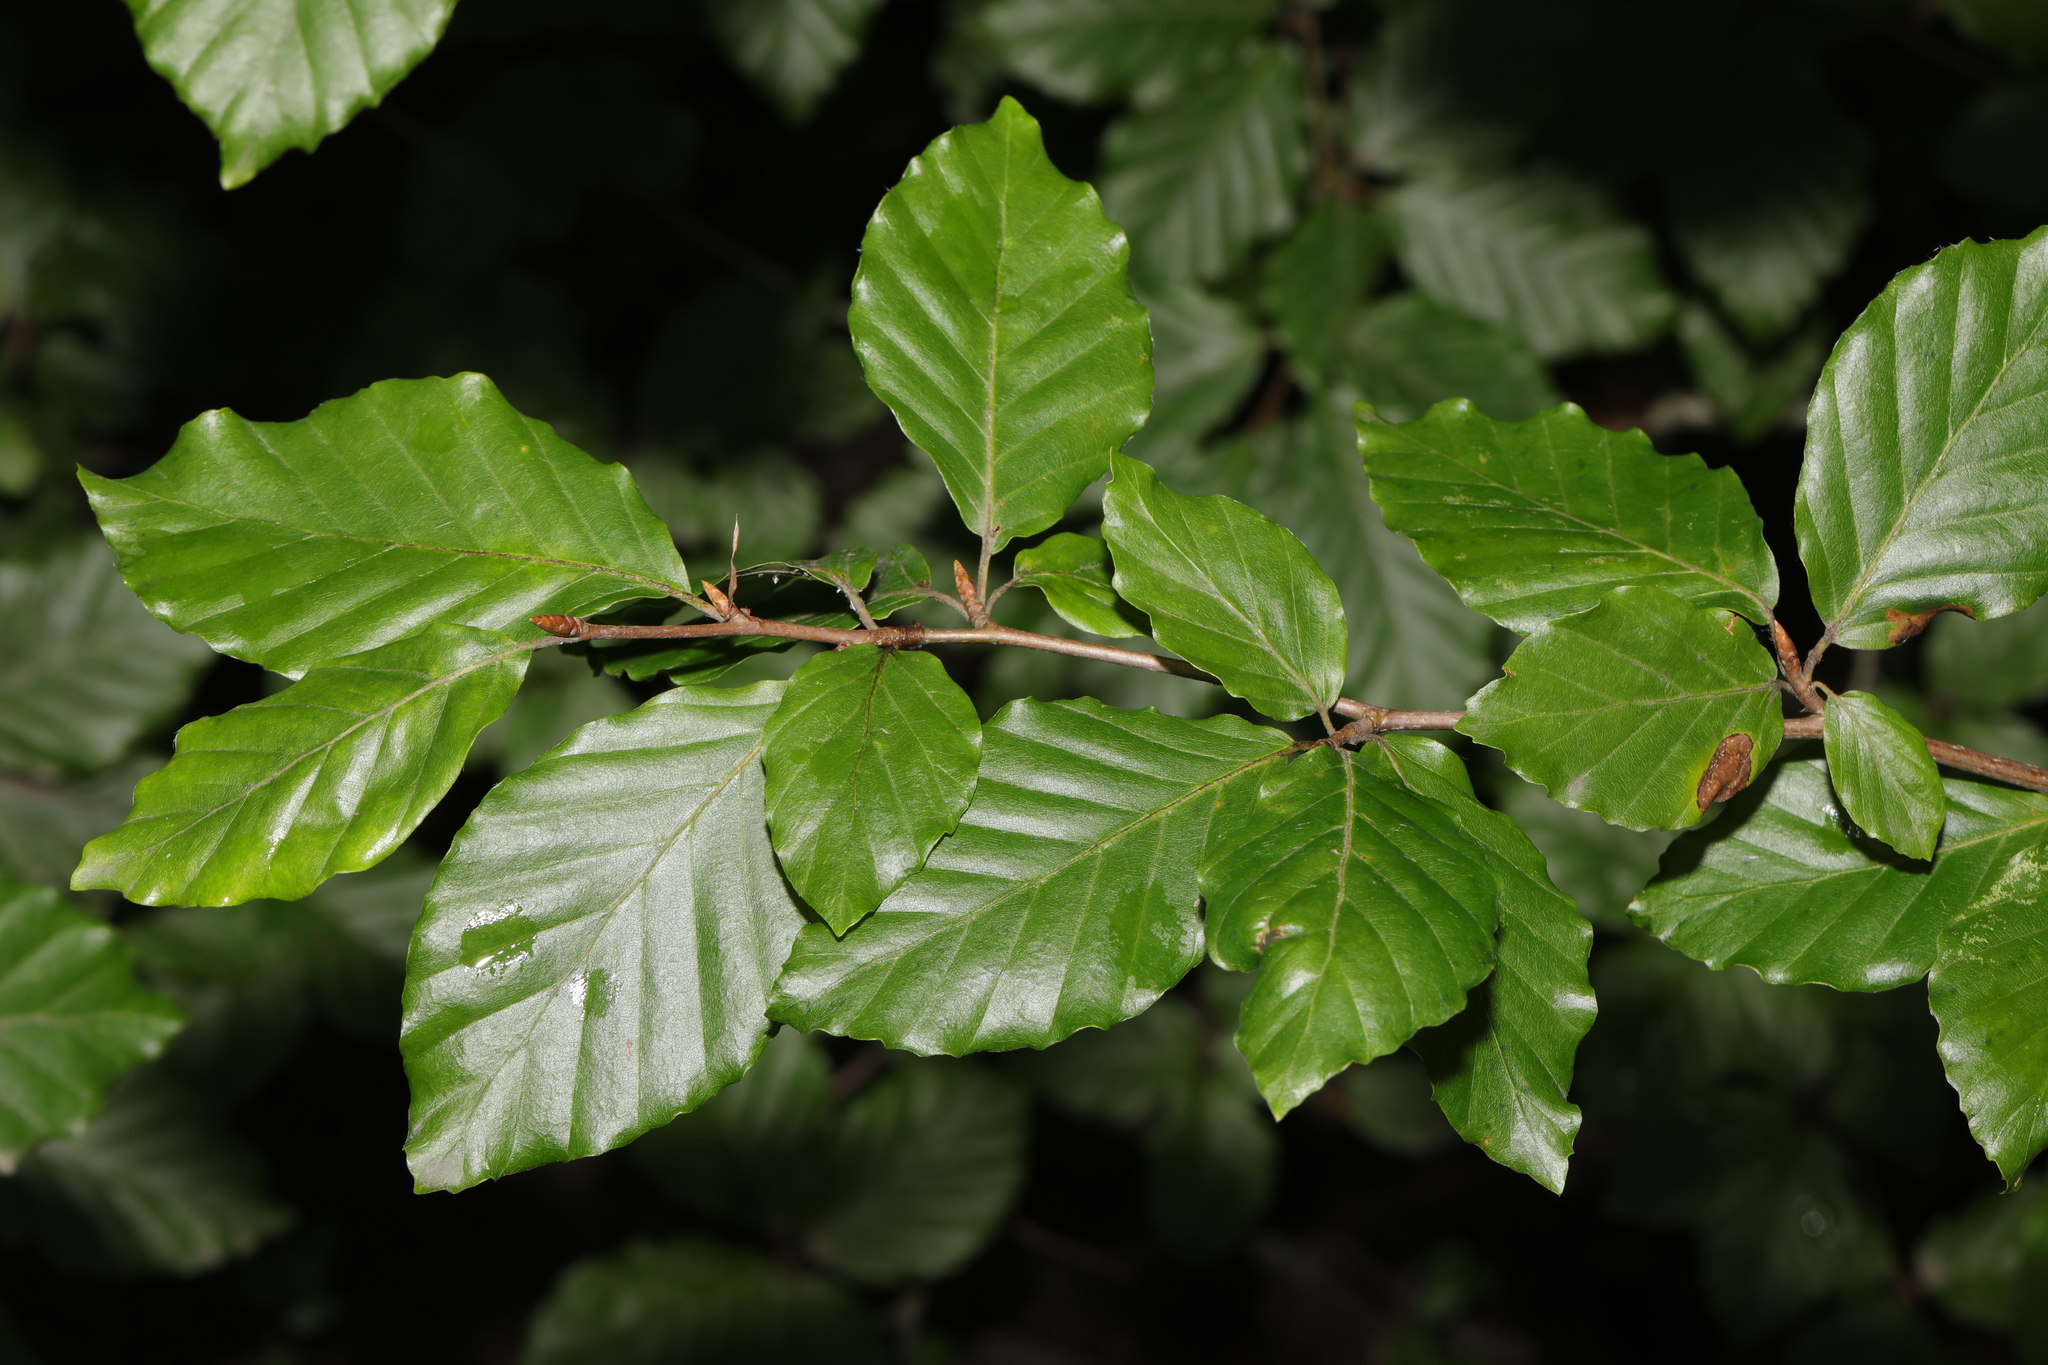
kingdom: Plantae
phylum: Tracheophyta
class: Magnoliopsida
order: Fagales
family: Fagaceae
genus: Fagus
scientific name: Fagus sylvatica
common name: Beech
